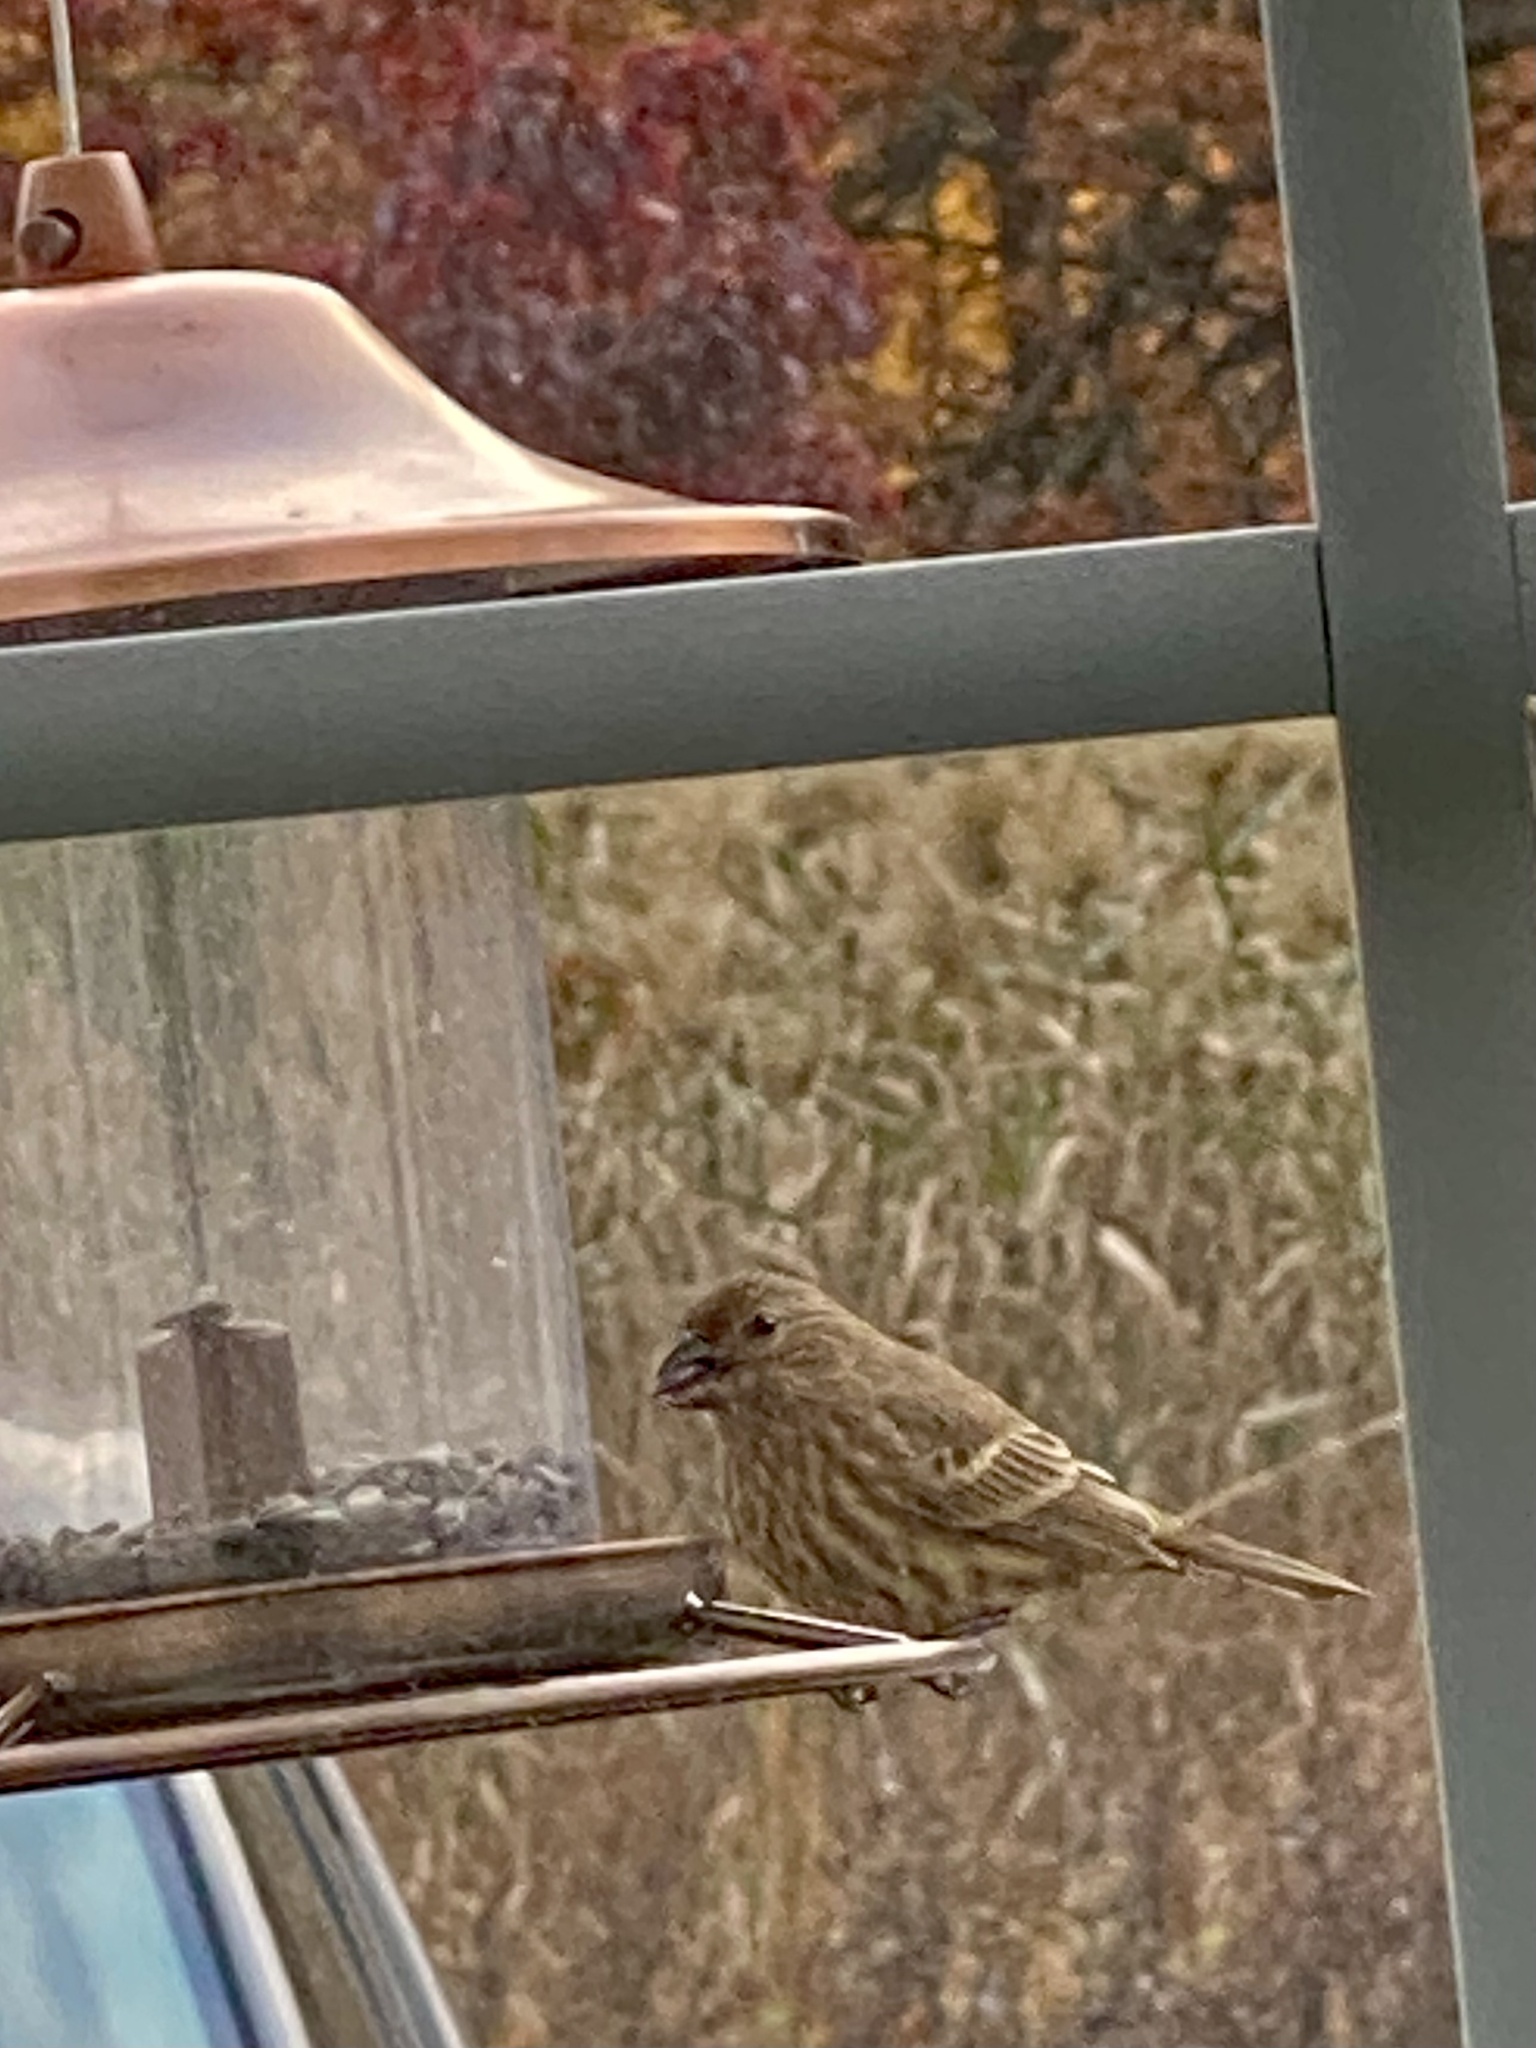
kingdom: Animalia
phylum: Chordata
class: Aves
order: Passeriformes
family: Fringillidae
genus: Haemorhous
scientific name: Haemorhous mexicanus
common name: House finch
